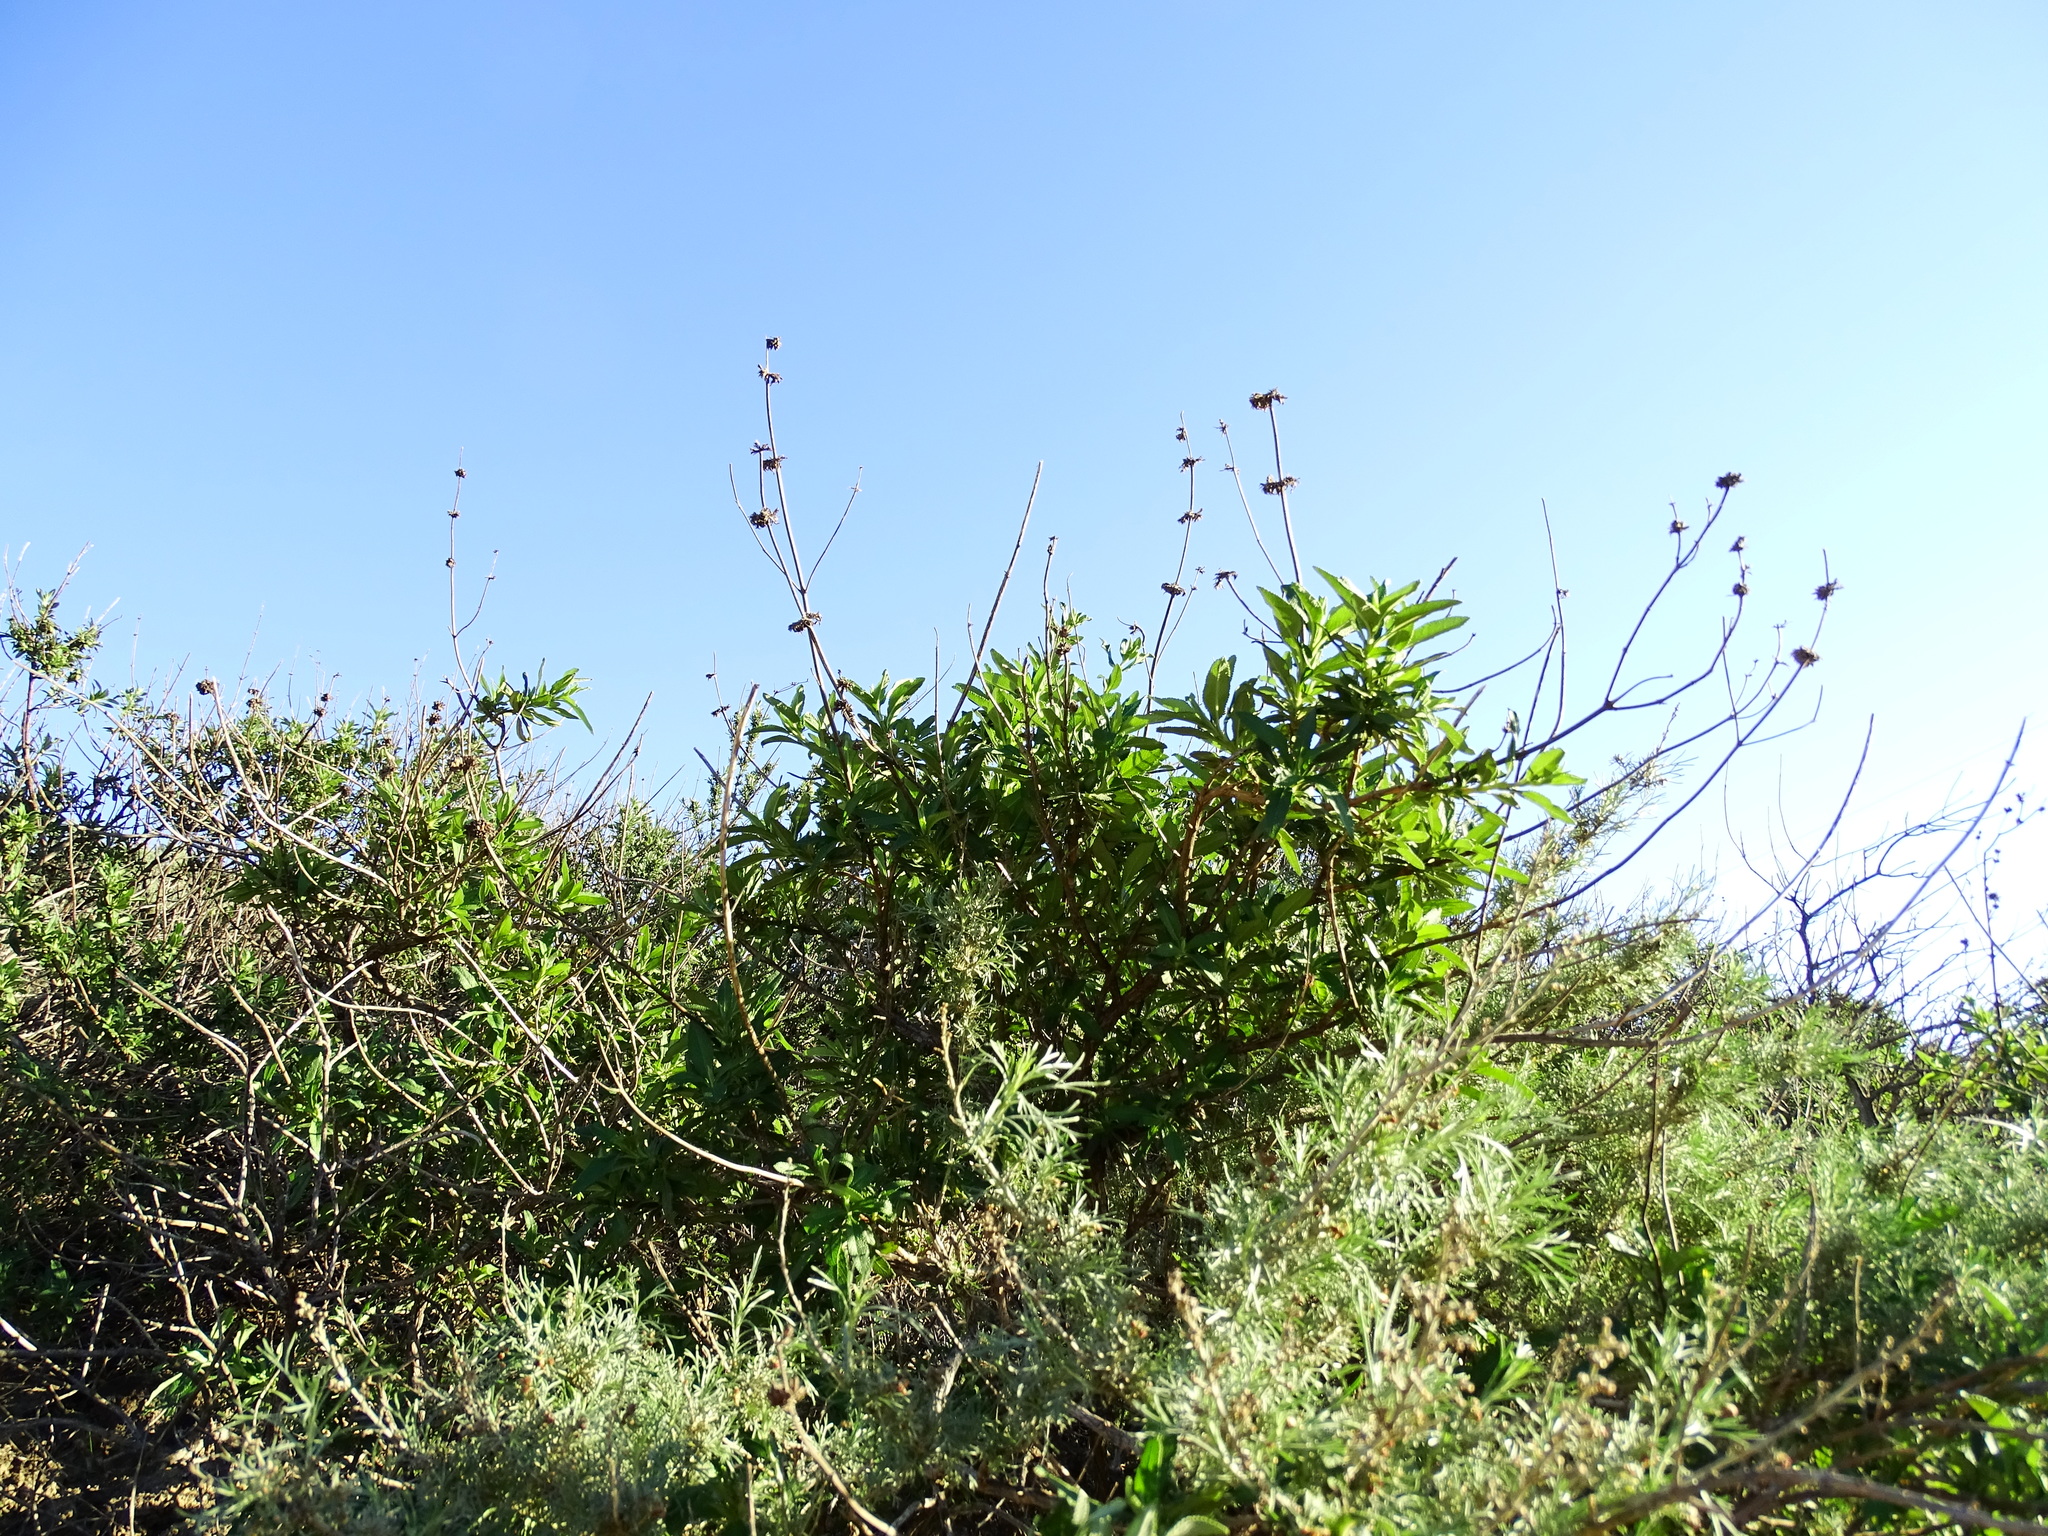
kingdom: Plantae
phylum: Tracheophyta
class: Magnoliopsida
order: Lamiales
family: Lamiaceae
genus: Salvia
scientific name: Salvia mellifera
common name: Black sage
